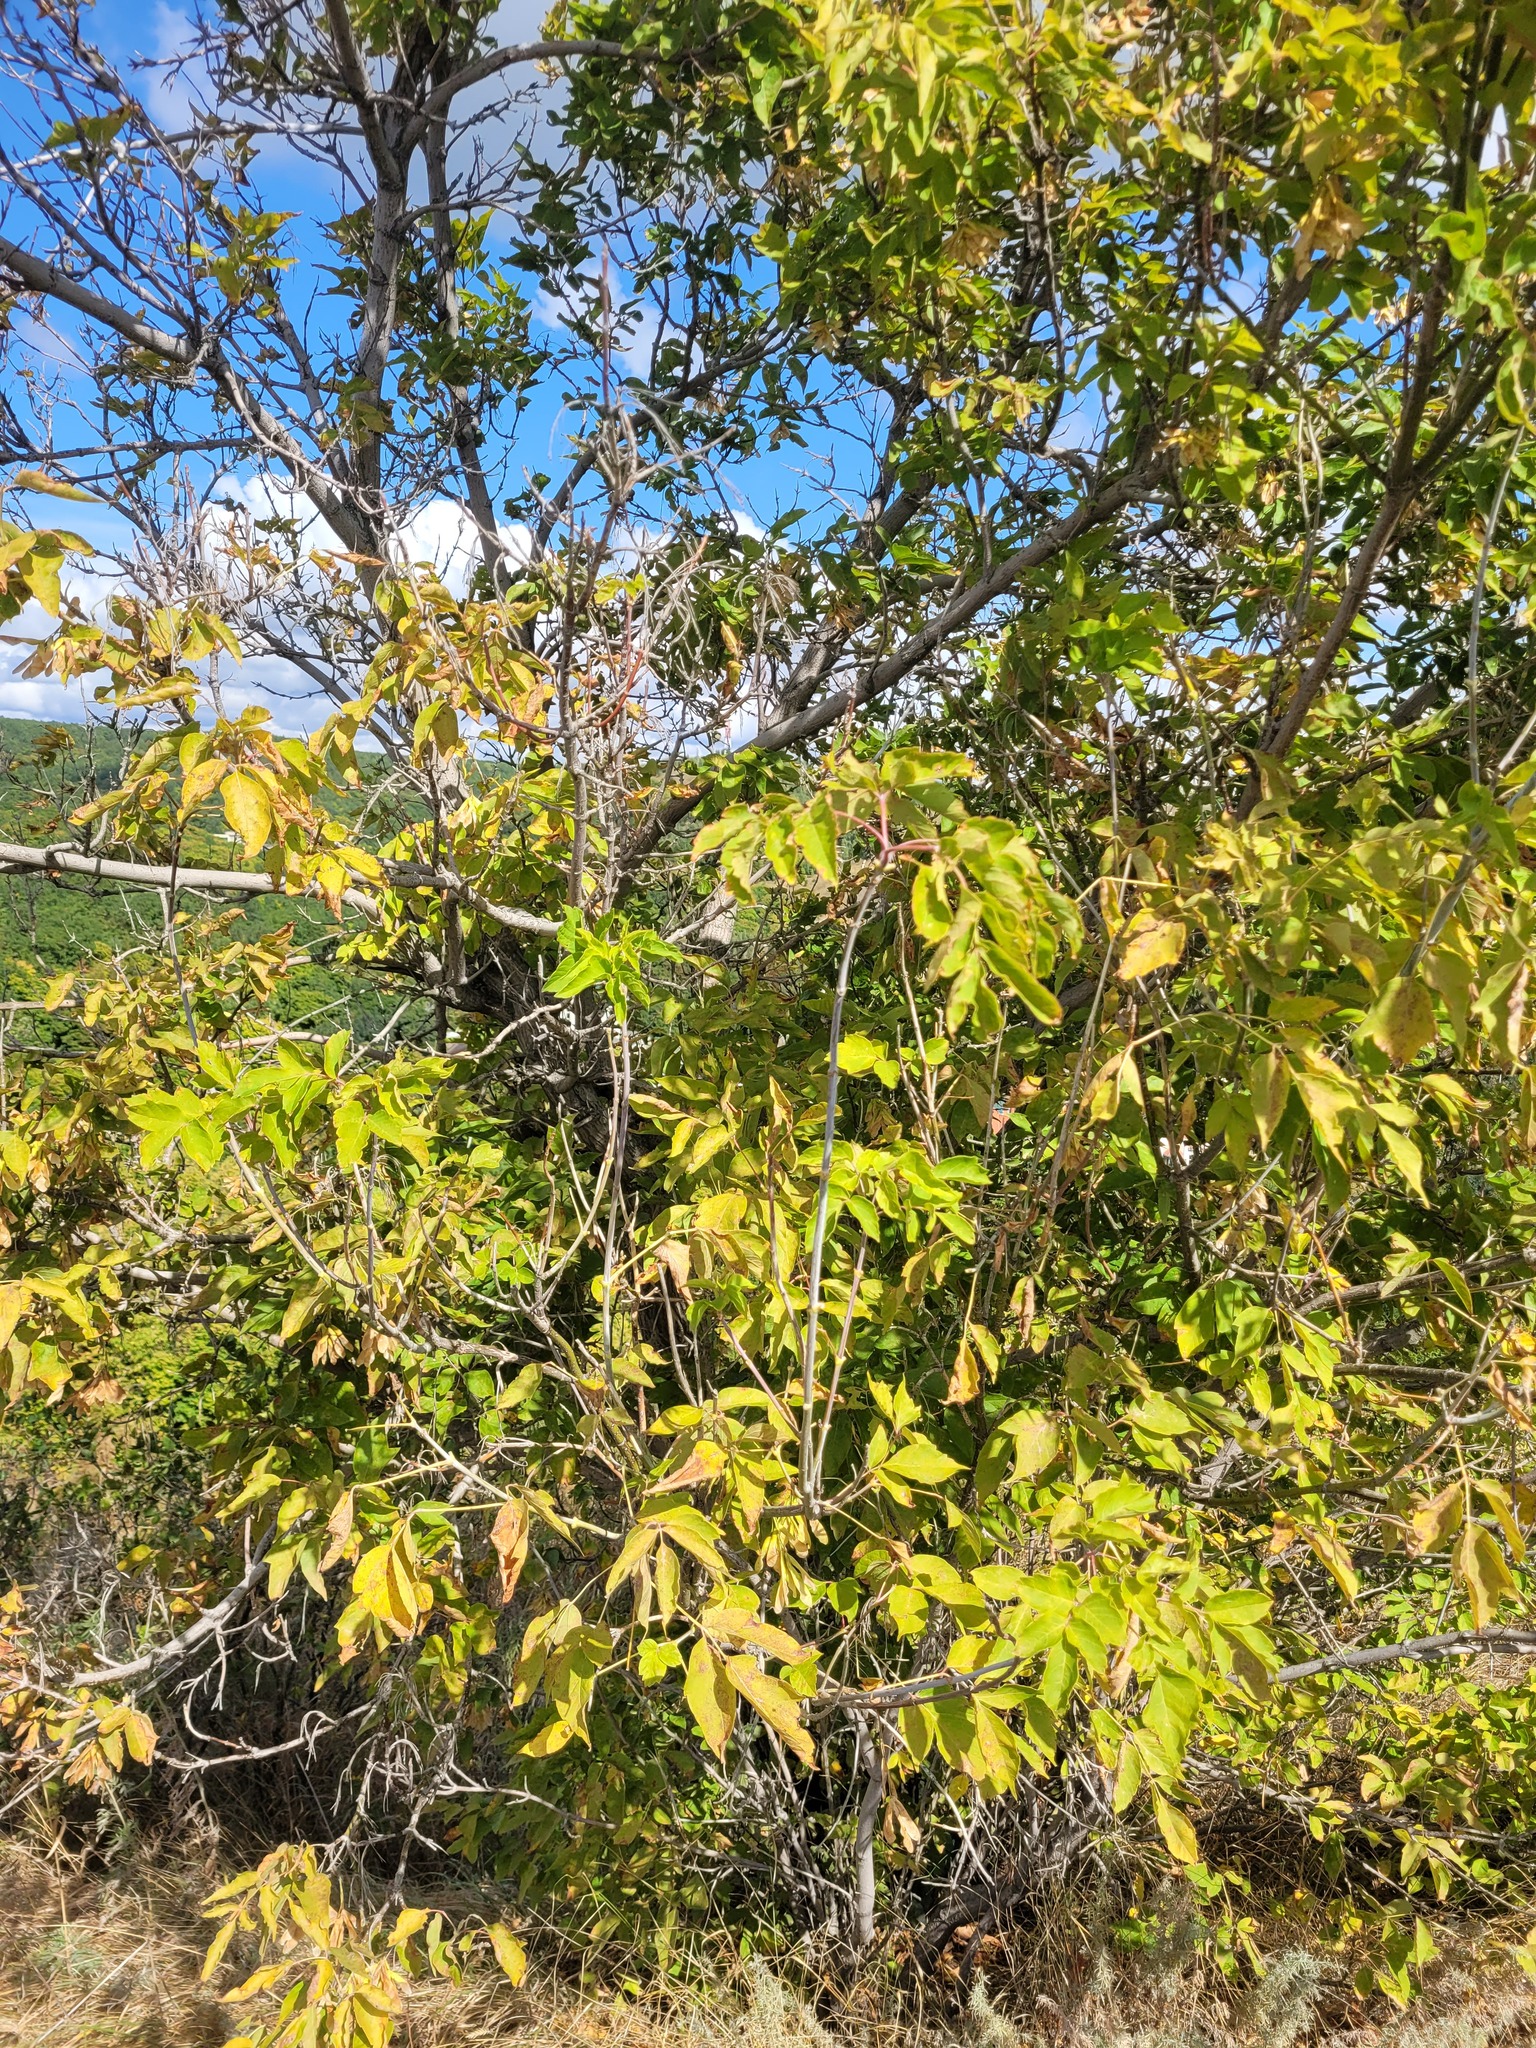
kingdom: Plantae
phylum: Tracheophyta
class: Magnoliopsida
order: Sapindales
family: Sapindaceae
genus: Acer
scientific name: Acer negundo
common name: Ashleaf maple
